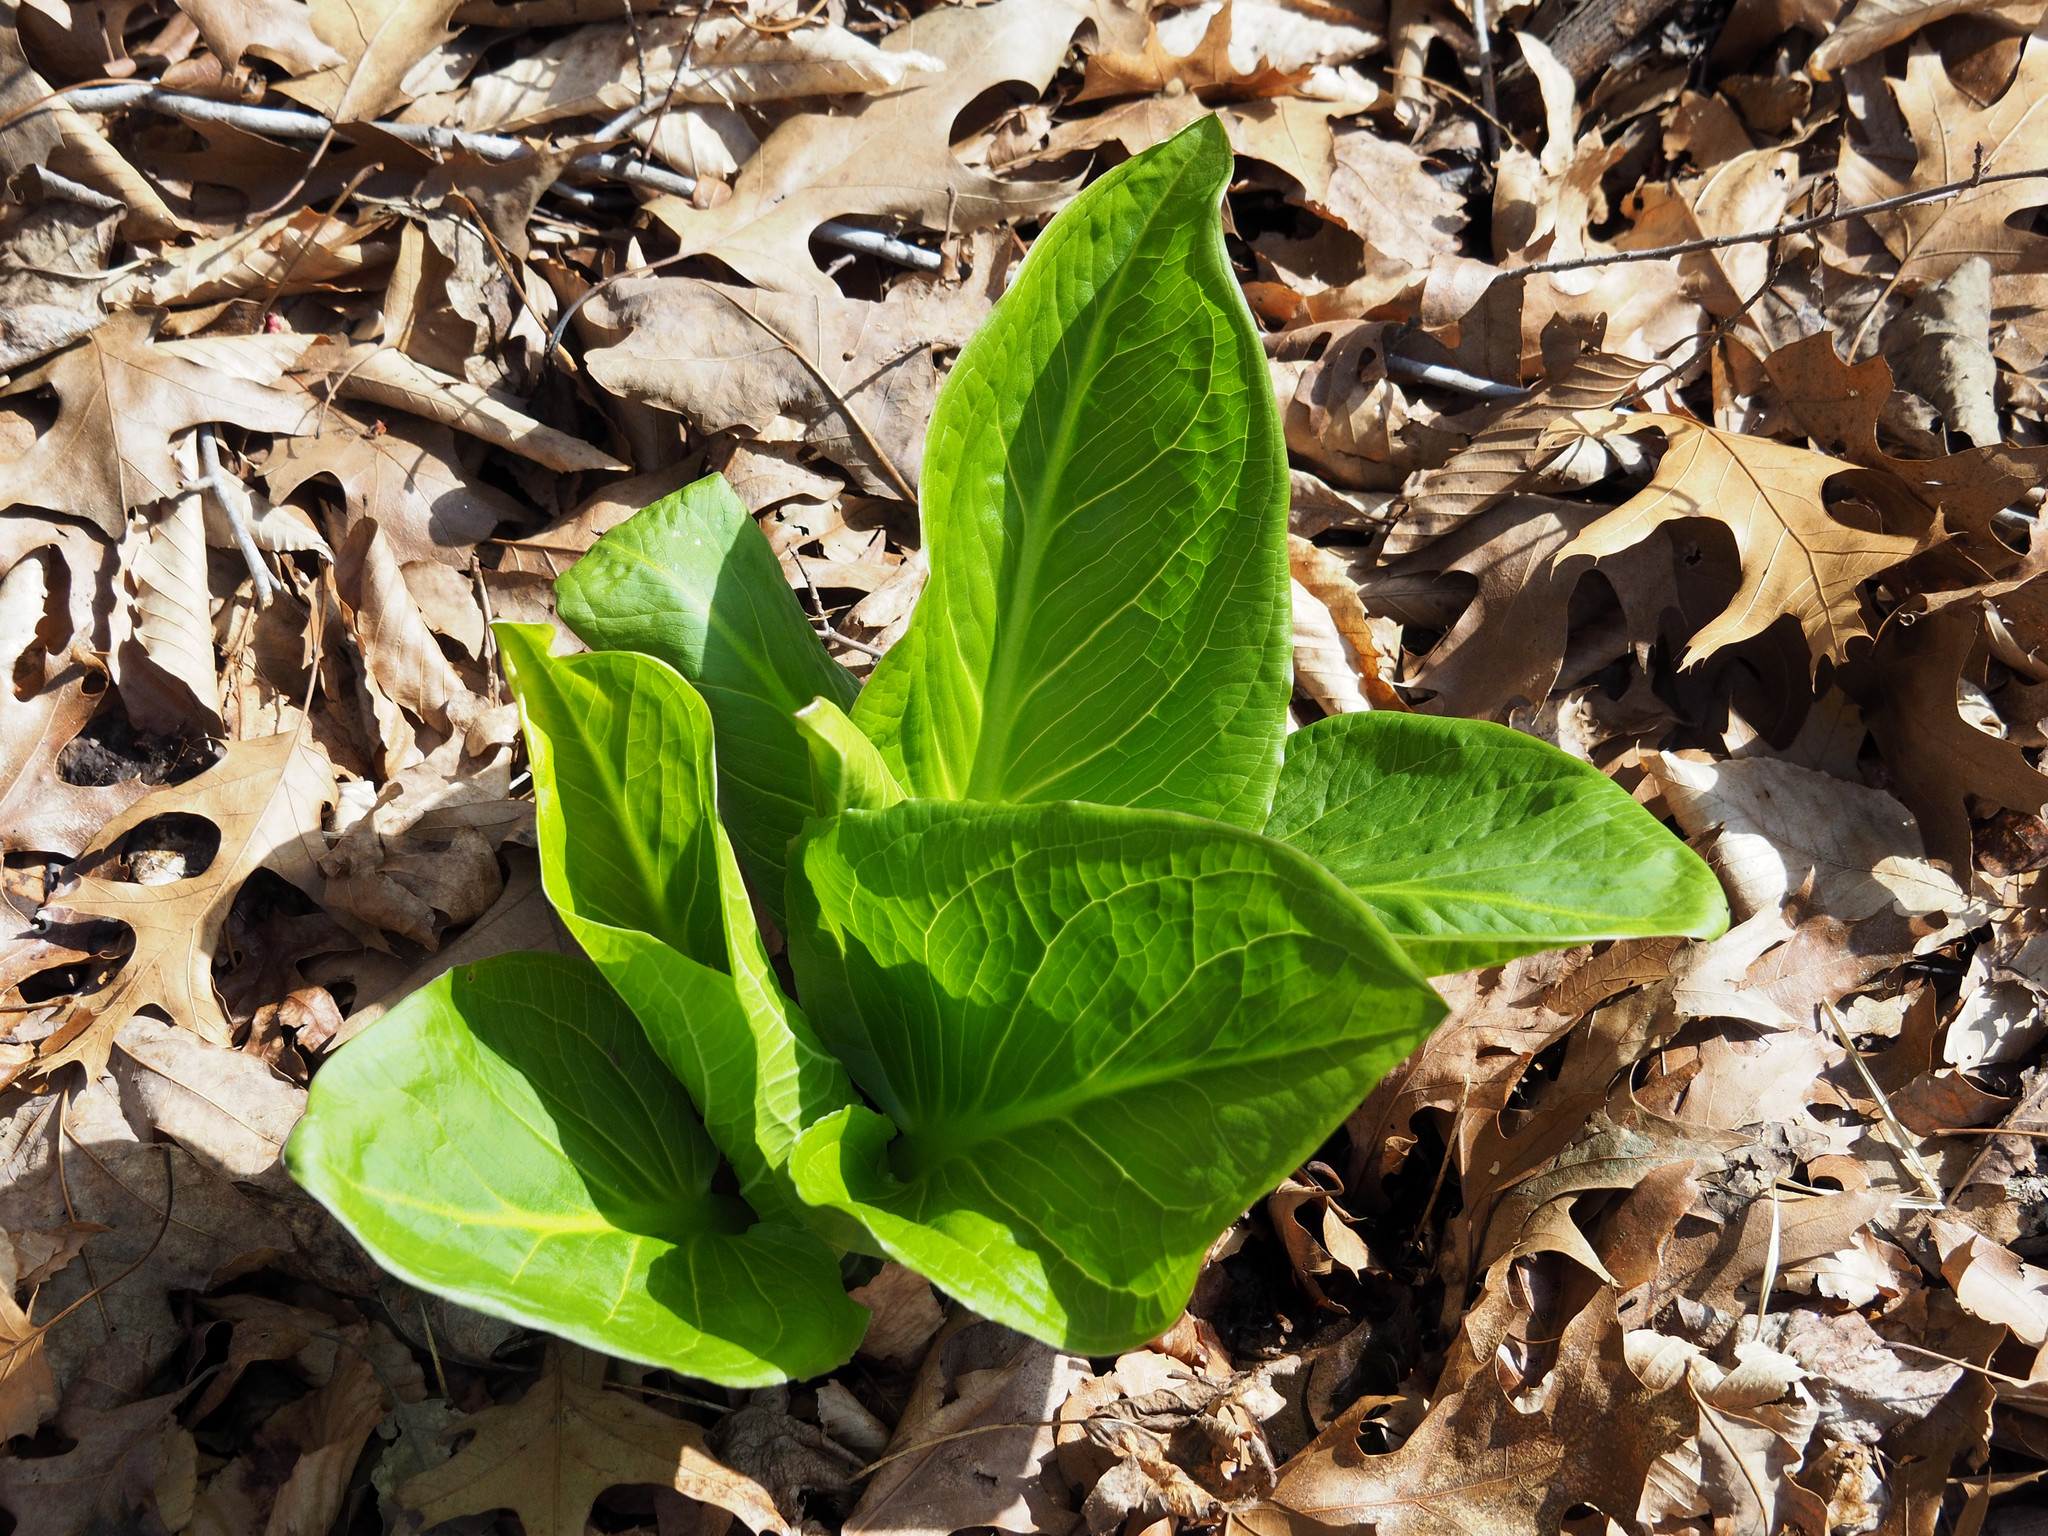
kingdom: Plantae
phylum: Tracheophyta
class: Liliopsida
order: Alismatales
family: Araceae
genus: Symplocarpus
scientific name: Symplocarpus foetidus
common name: Eastern skunk cabbage
